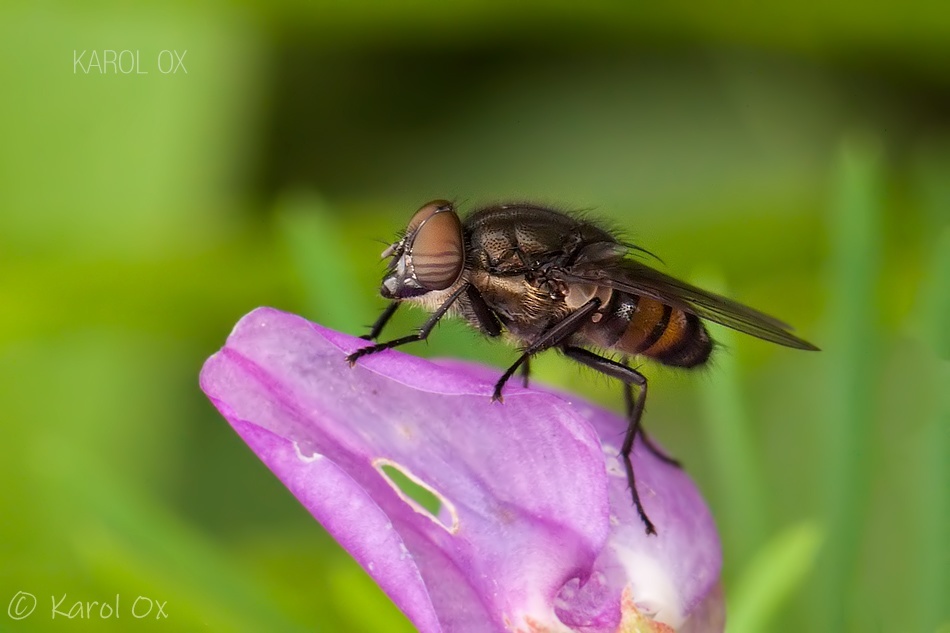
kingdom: Animalia
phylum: Arthropoda
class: Insecta
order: Diptera
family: Calliphoridae
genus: Stomorhina
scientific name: Stomorhina lunata
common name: Locust blowfly
